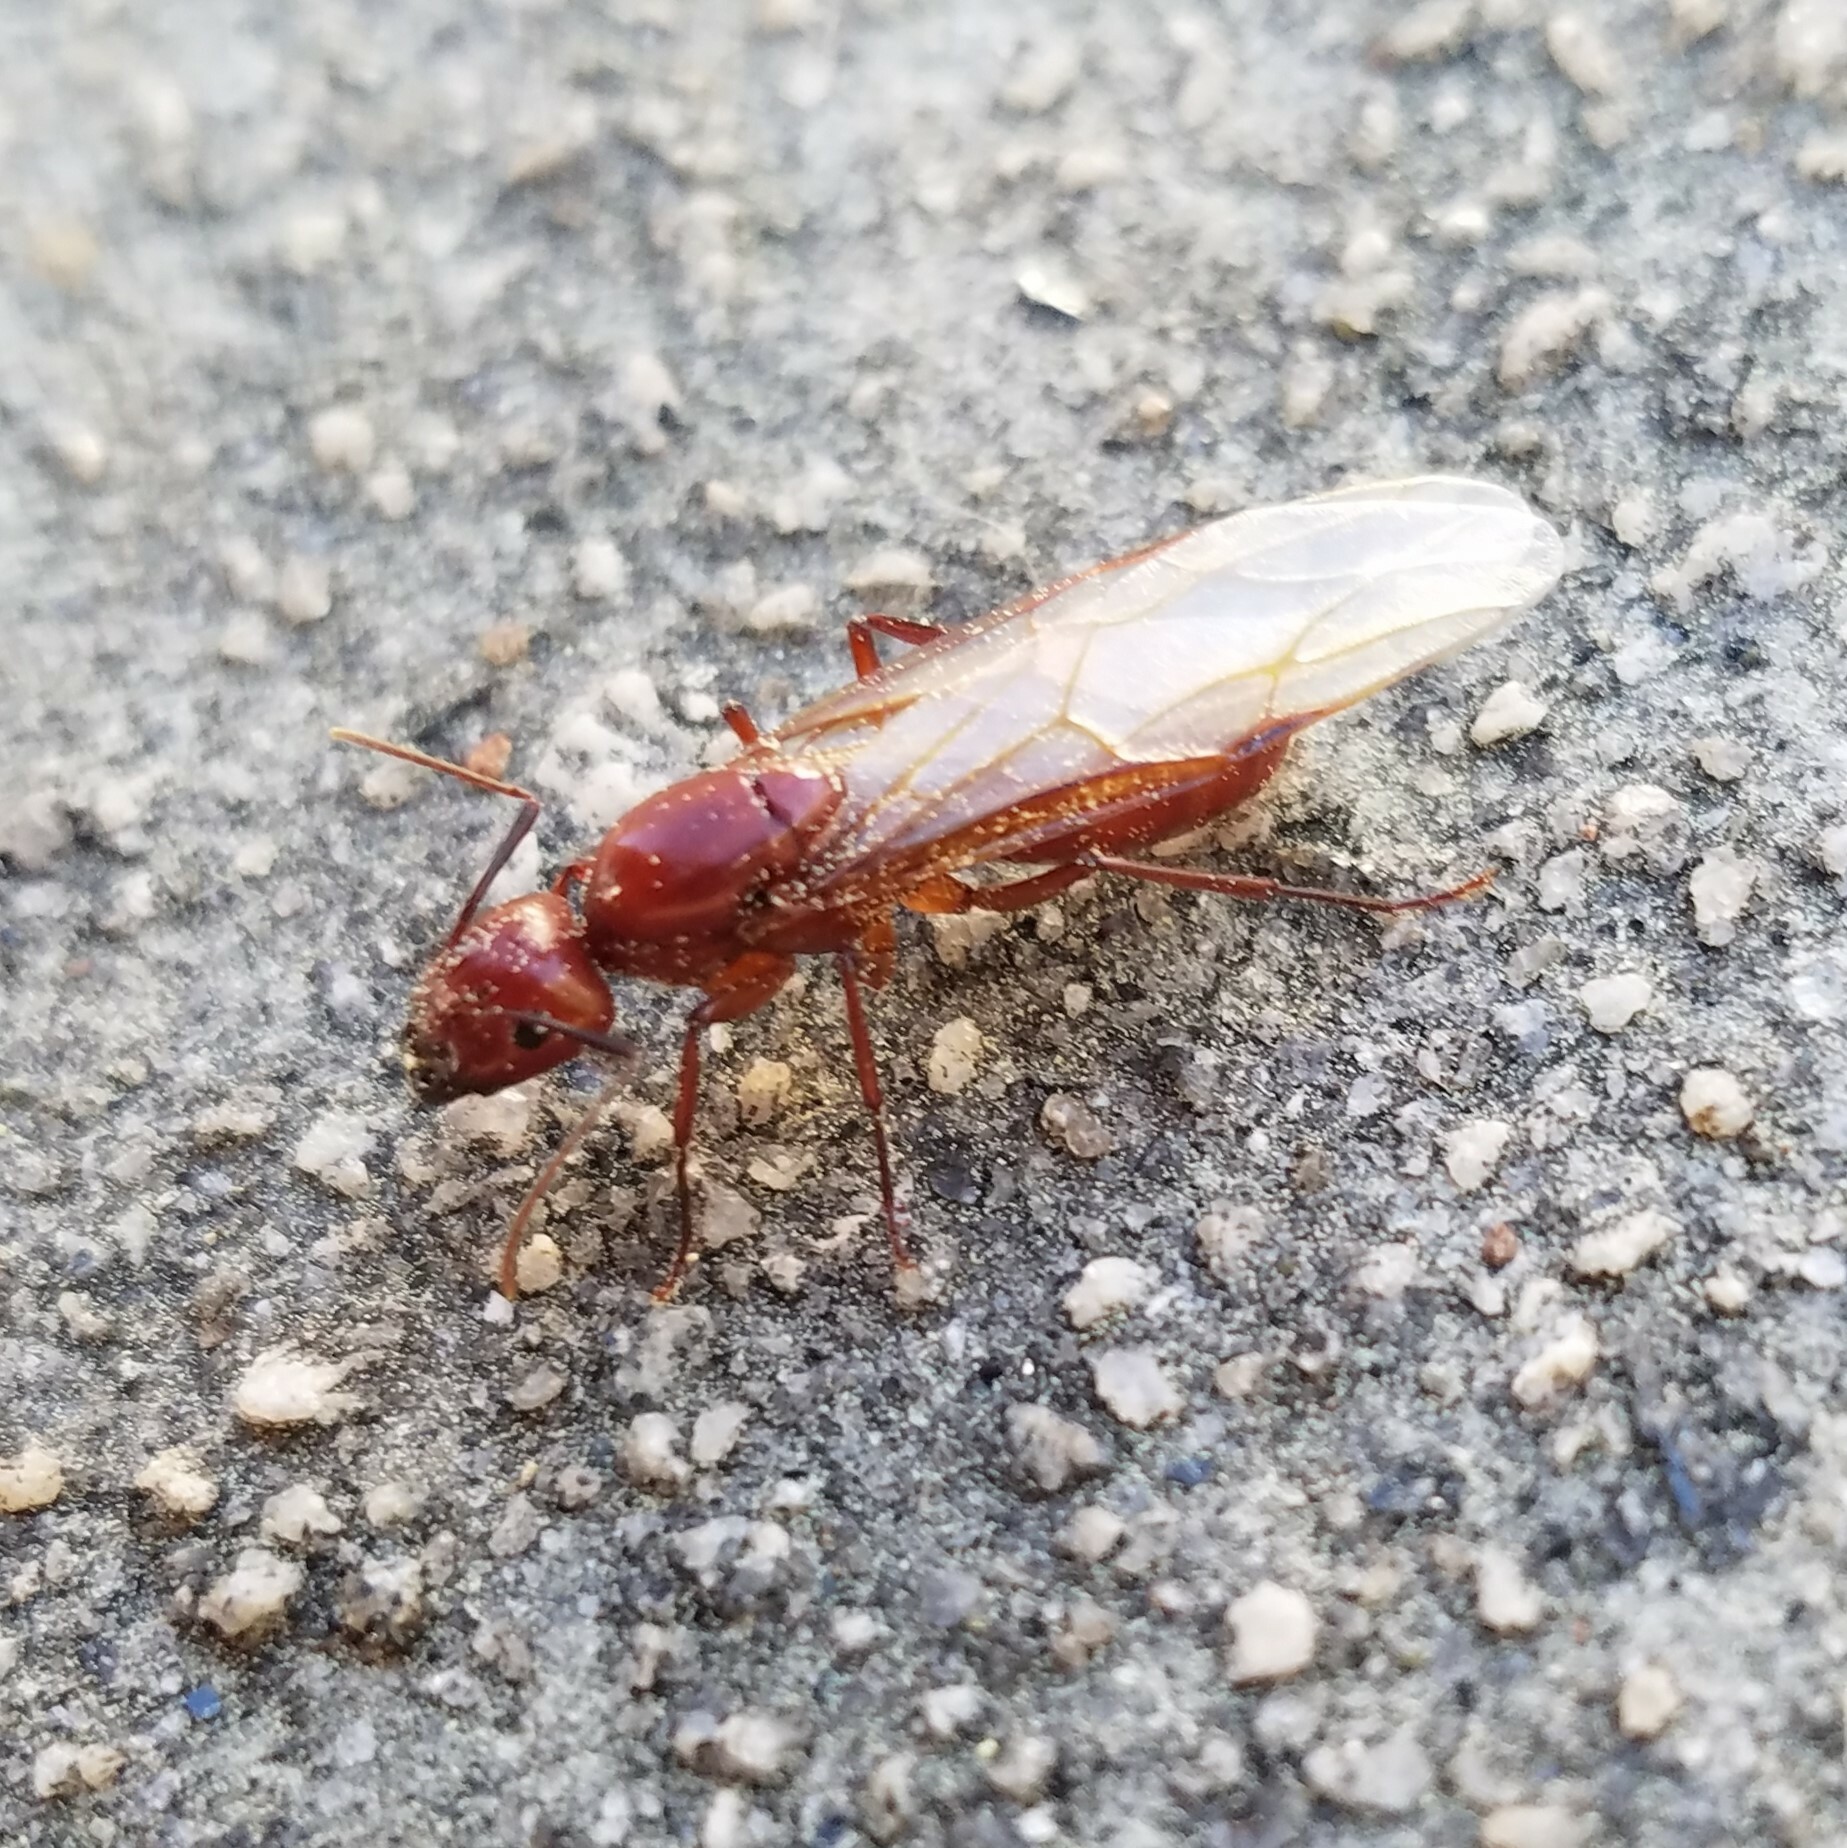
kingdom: Animalia
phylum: Arthropoda
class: Insecta
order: Hymenoptera
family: Formicidae
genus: Camponotus
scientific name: Camponotus castaneus
